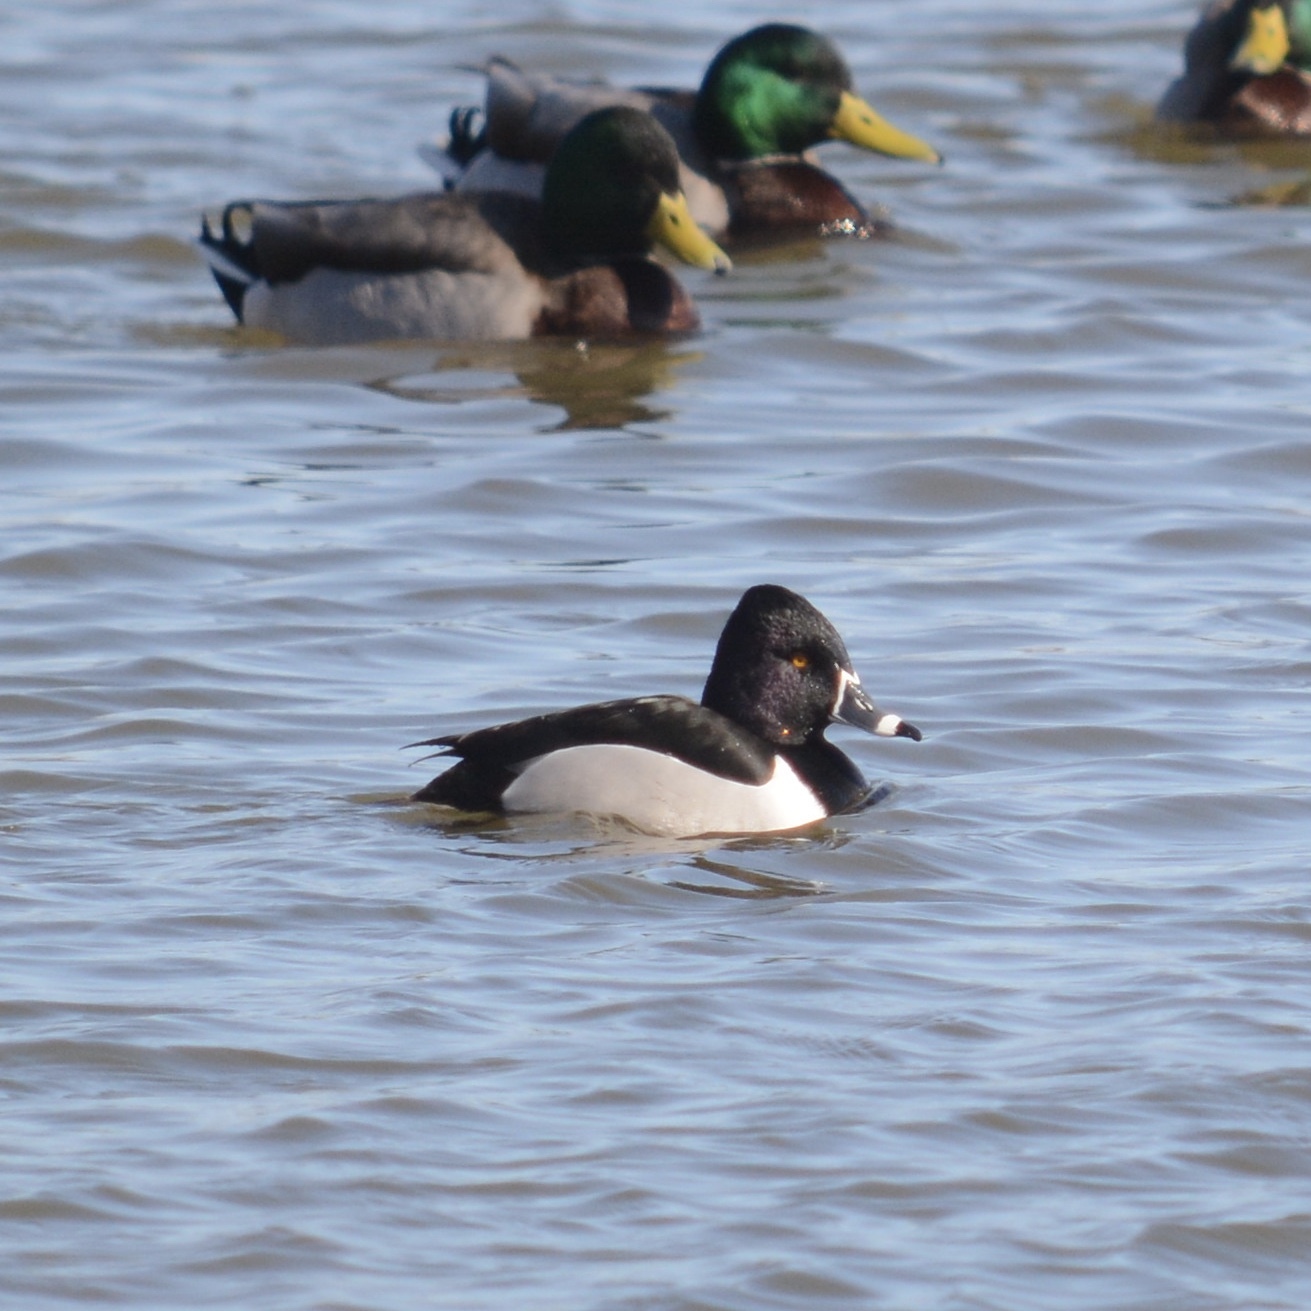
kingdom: Animalia
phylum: Chordata
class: Aves
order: Anseriformes
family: Anatidae
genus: Aythya
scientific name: Aythya collaris
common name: Ring-necked duck
